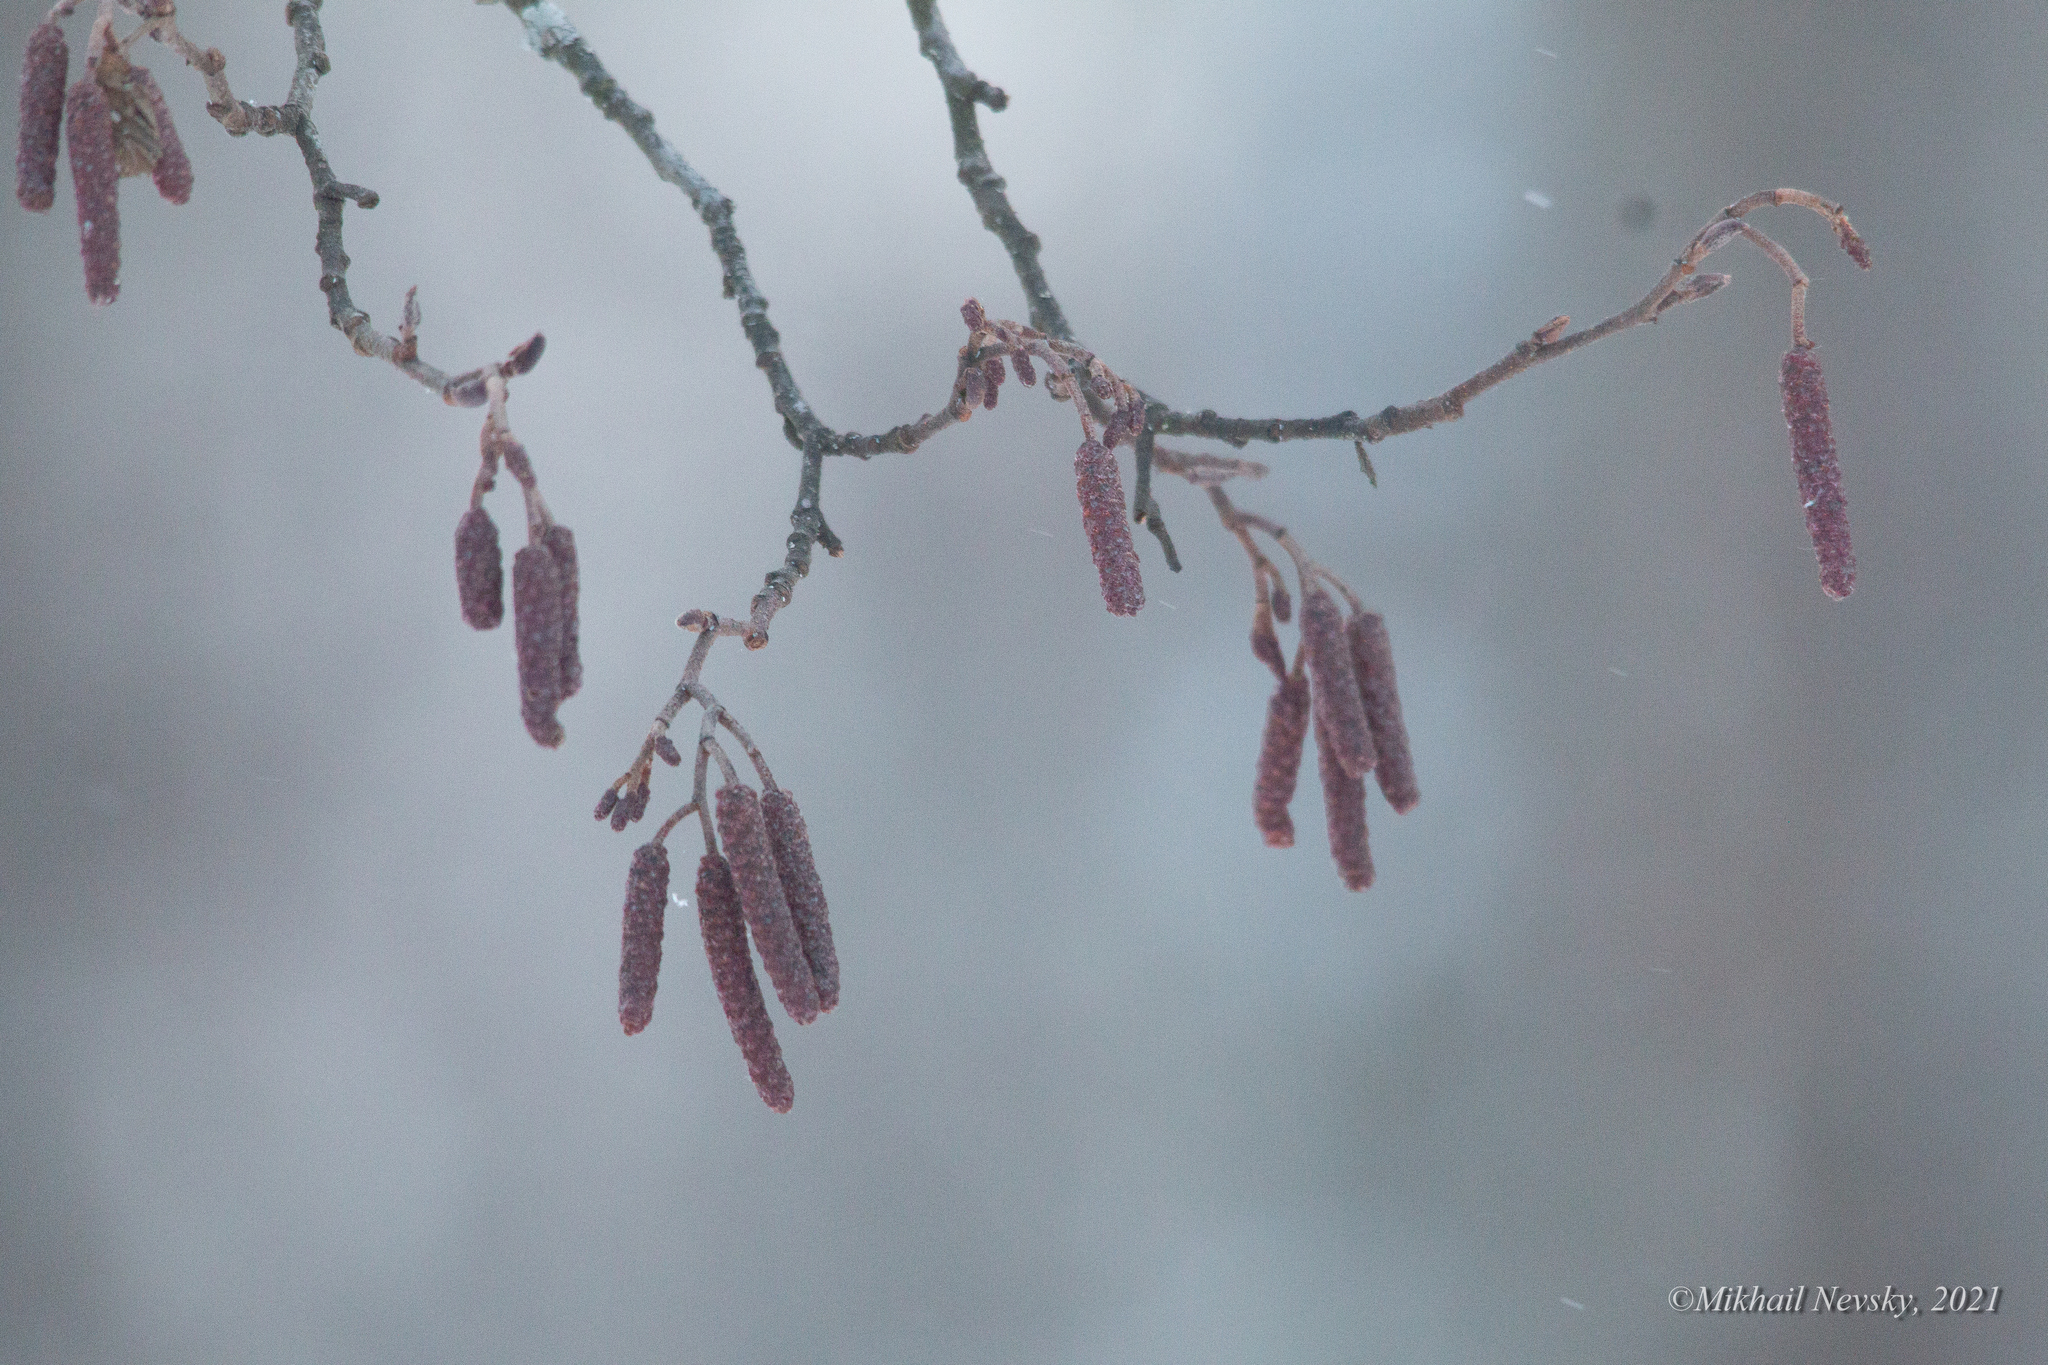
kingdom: Plantae
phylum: Tracheophyta
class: Magnoliopsida
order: Fagales
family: Betulaceae
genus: Alnus
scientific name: Alnus incana
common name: Grey alder
